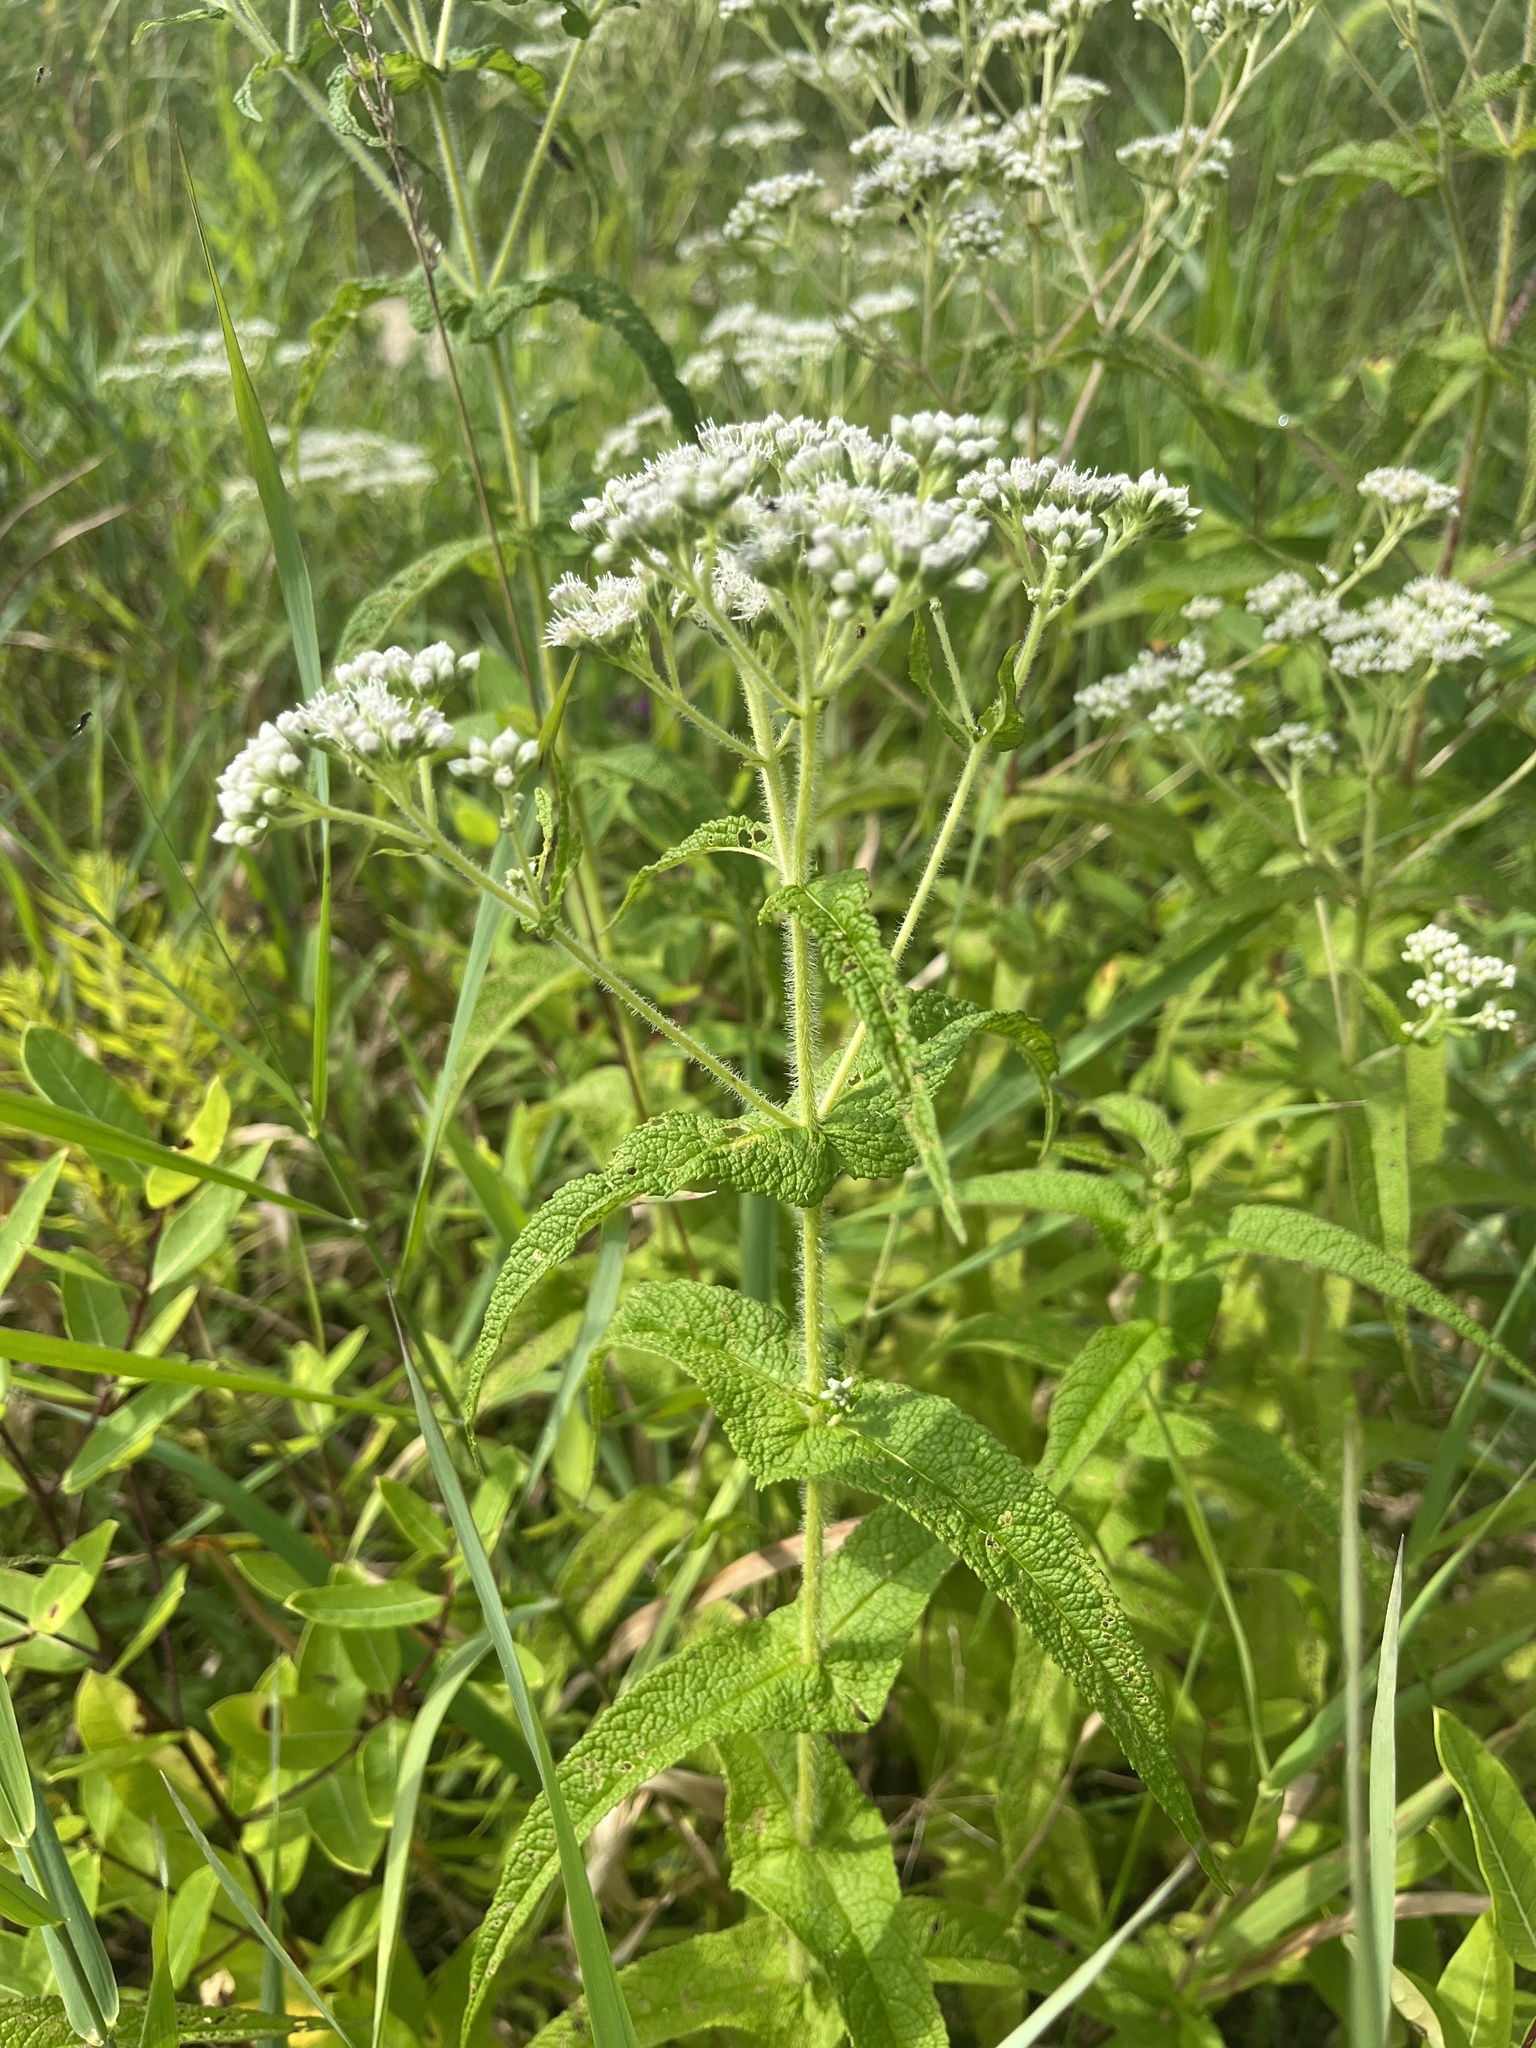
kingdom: Plantae
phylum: Tracheophyta
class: Magnoliopsida
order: Asterales
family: Asteraceae
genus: Eupatorium
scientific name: Eupatorium perfoliatum
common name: Boneset
